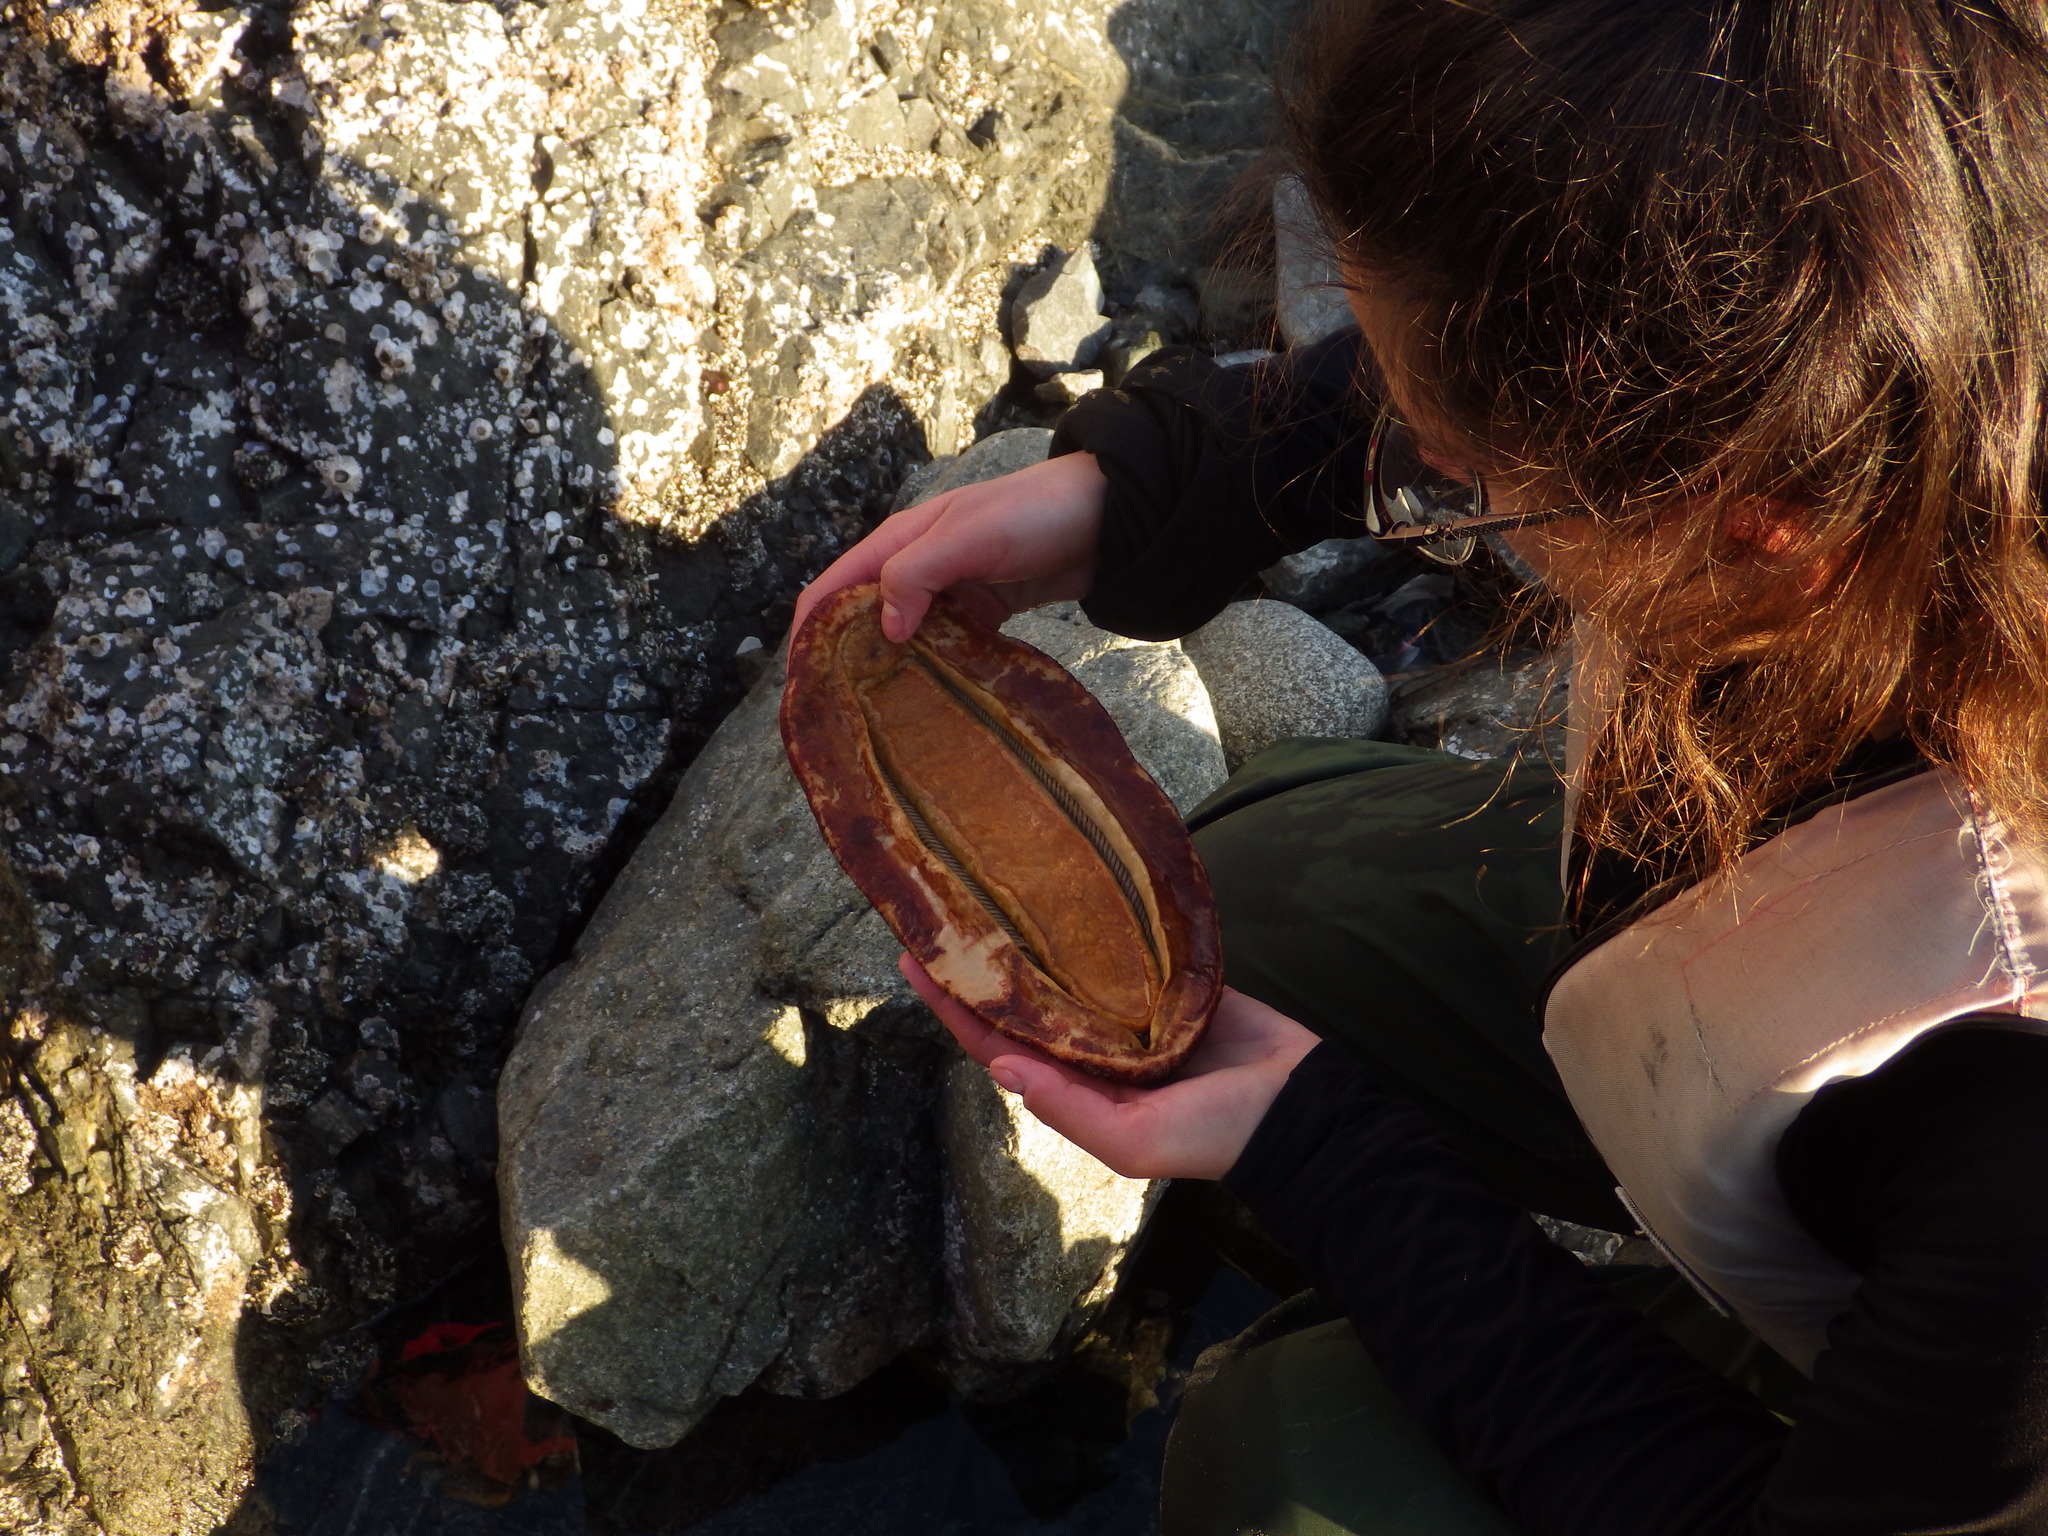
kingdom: Animalia
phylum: Mollusca
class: Polyplacophora
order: Chitonida
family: Acanthochitonidae
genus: Cryptochiton
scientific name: Cryptochiton stelleri
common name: Giant pacific chiton
